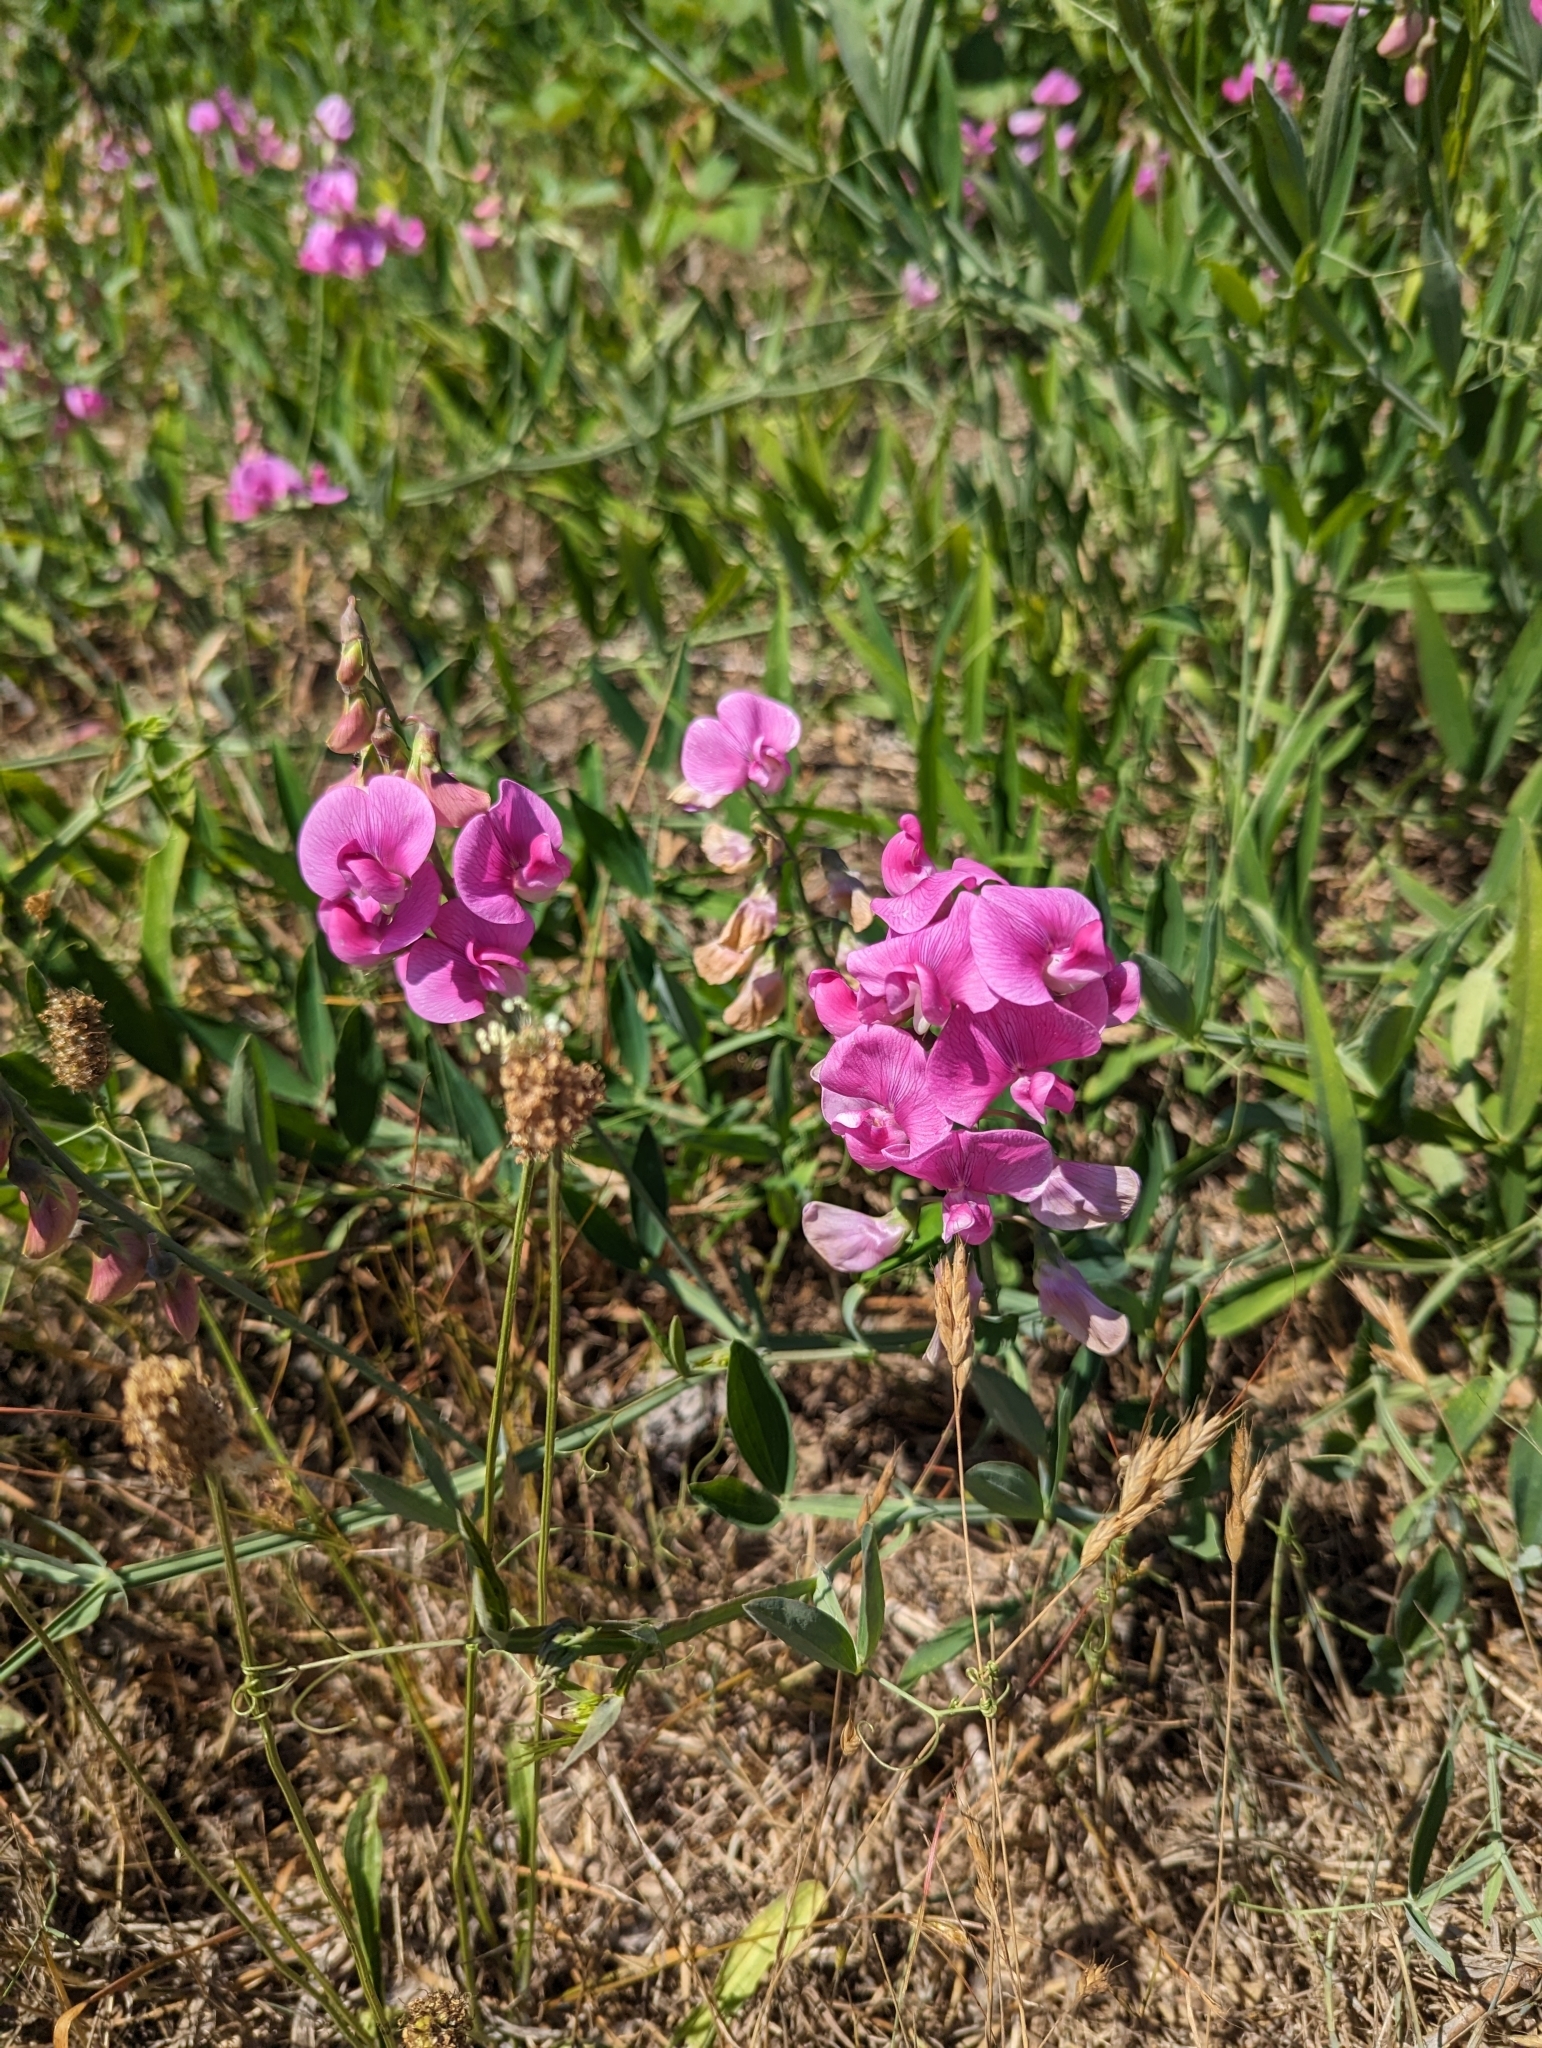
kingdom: Plantae
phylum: Tracheophyta
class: Magnoliopsida
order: Fabales
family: Fabaceae
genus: Lathyrus
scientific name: Lathyrus latifolius
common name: Perennial pea
